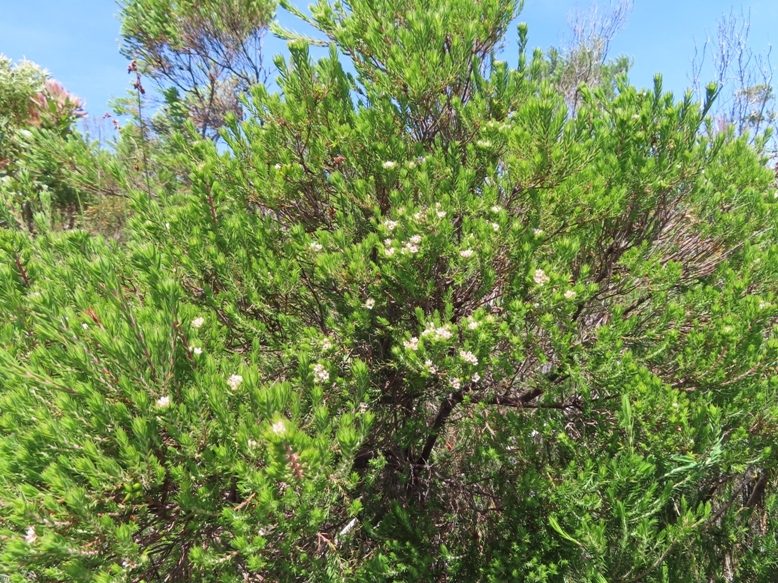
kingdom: Plantae
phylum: Tracheophyta
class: Magnoliopsida
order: Sapindales
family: Rutaceae
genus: Diosma
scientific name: Diosma subulata
